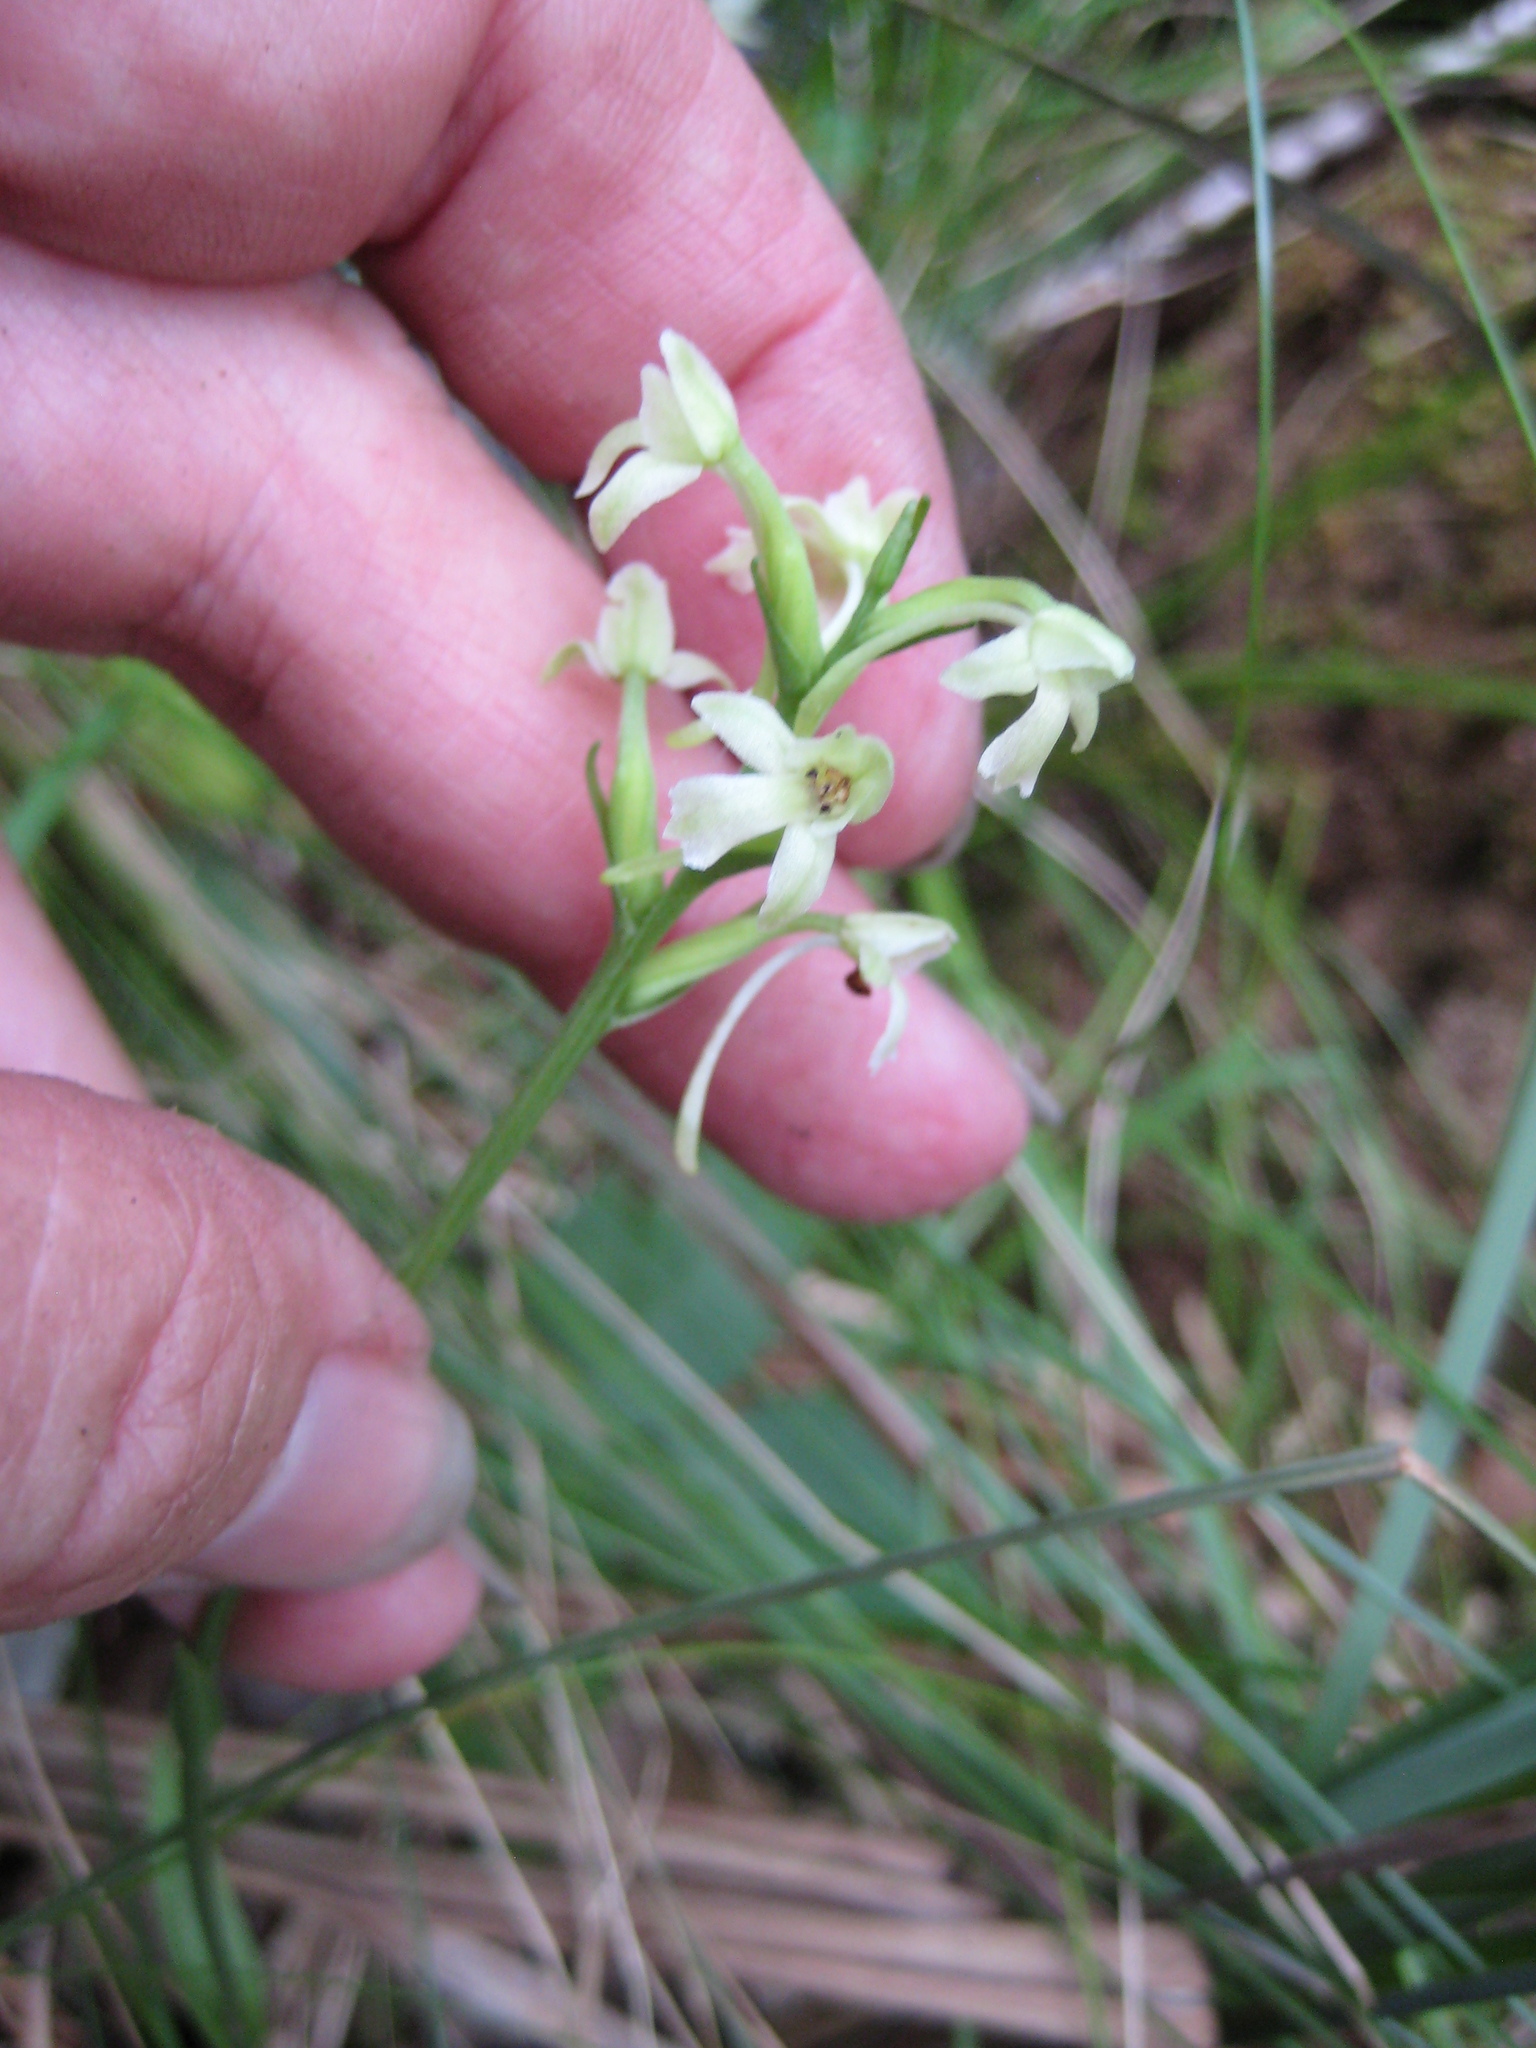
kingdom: Plantae
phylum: Tracheophyta
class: Liliopsida
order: Asparagales
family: Orchidaceae
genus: Platanthera
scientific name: Platanthera clavellata
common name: Club-spur orchid
